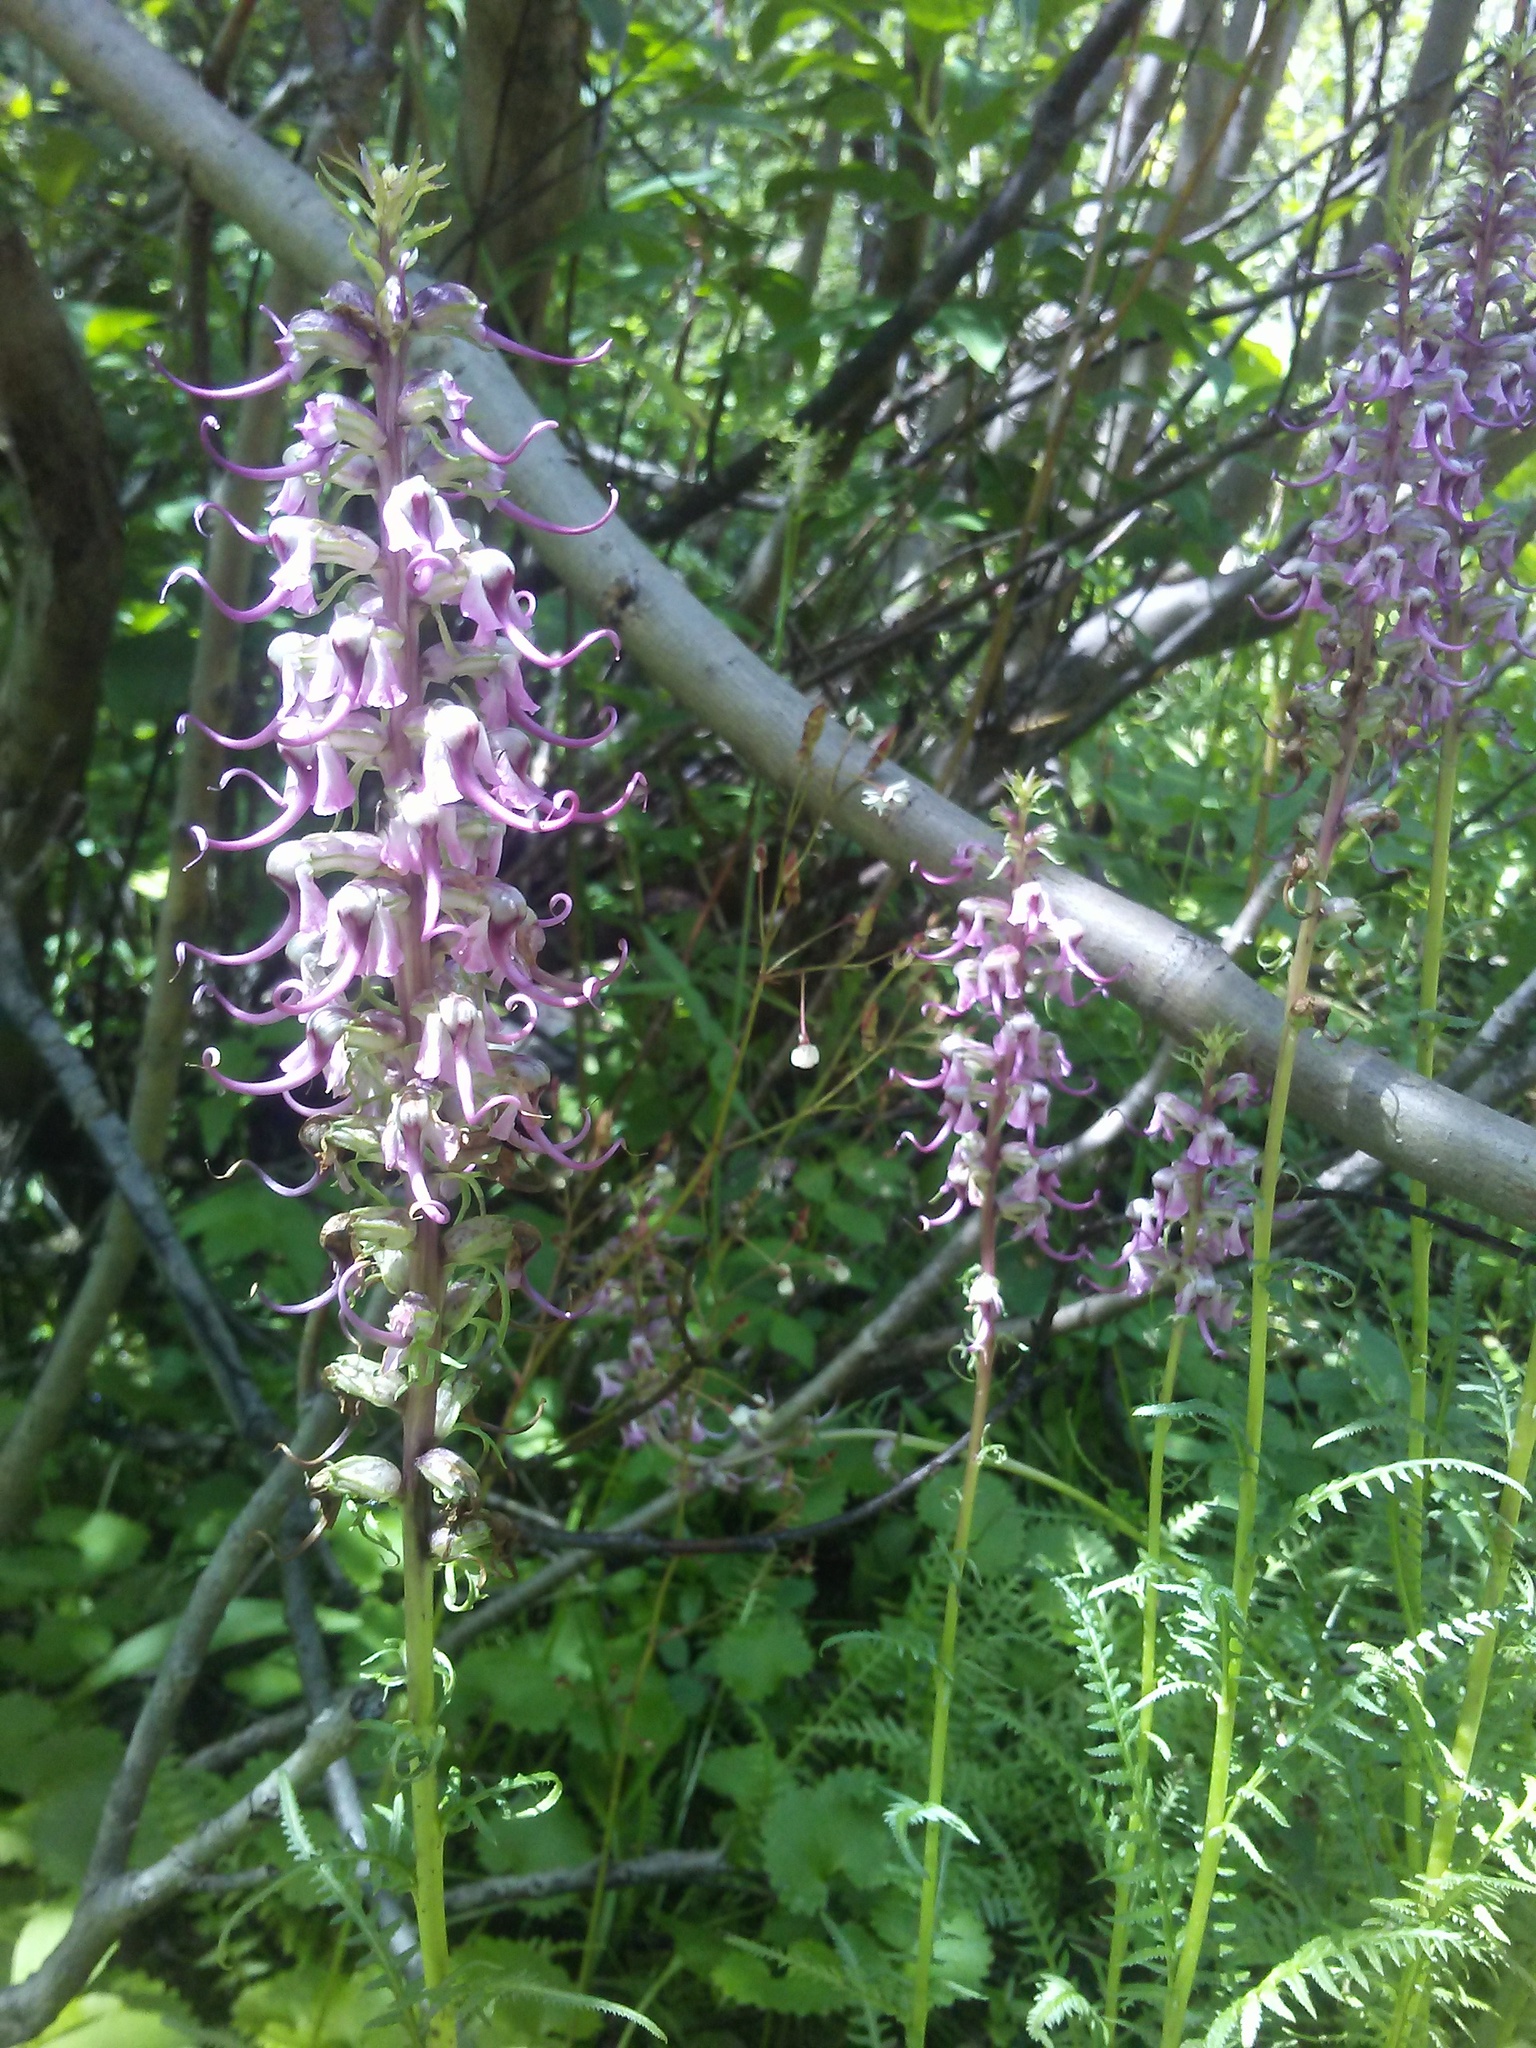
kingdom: Plantae
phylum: Tracheophyta
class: Magnoliopsida
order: Lamiales
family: Orobanchaceae
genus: Pedicularis
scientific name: Pedicularis groenlandica
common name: Elephant's-head
